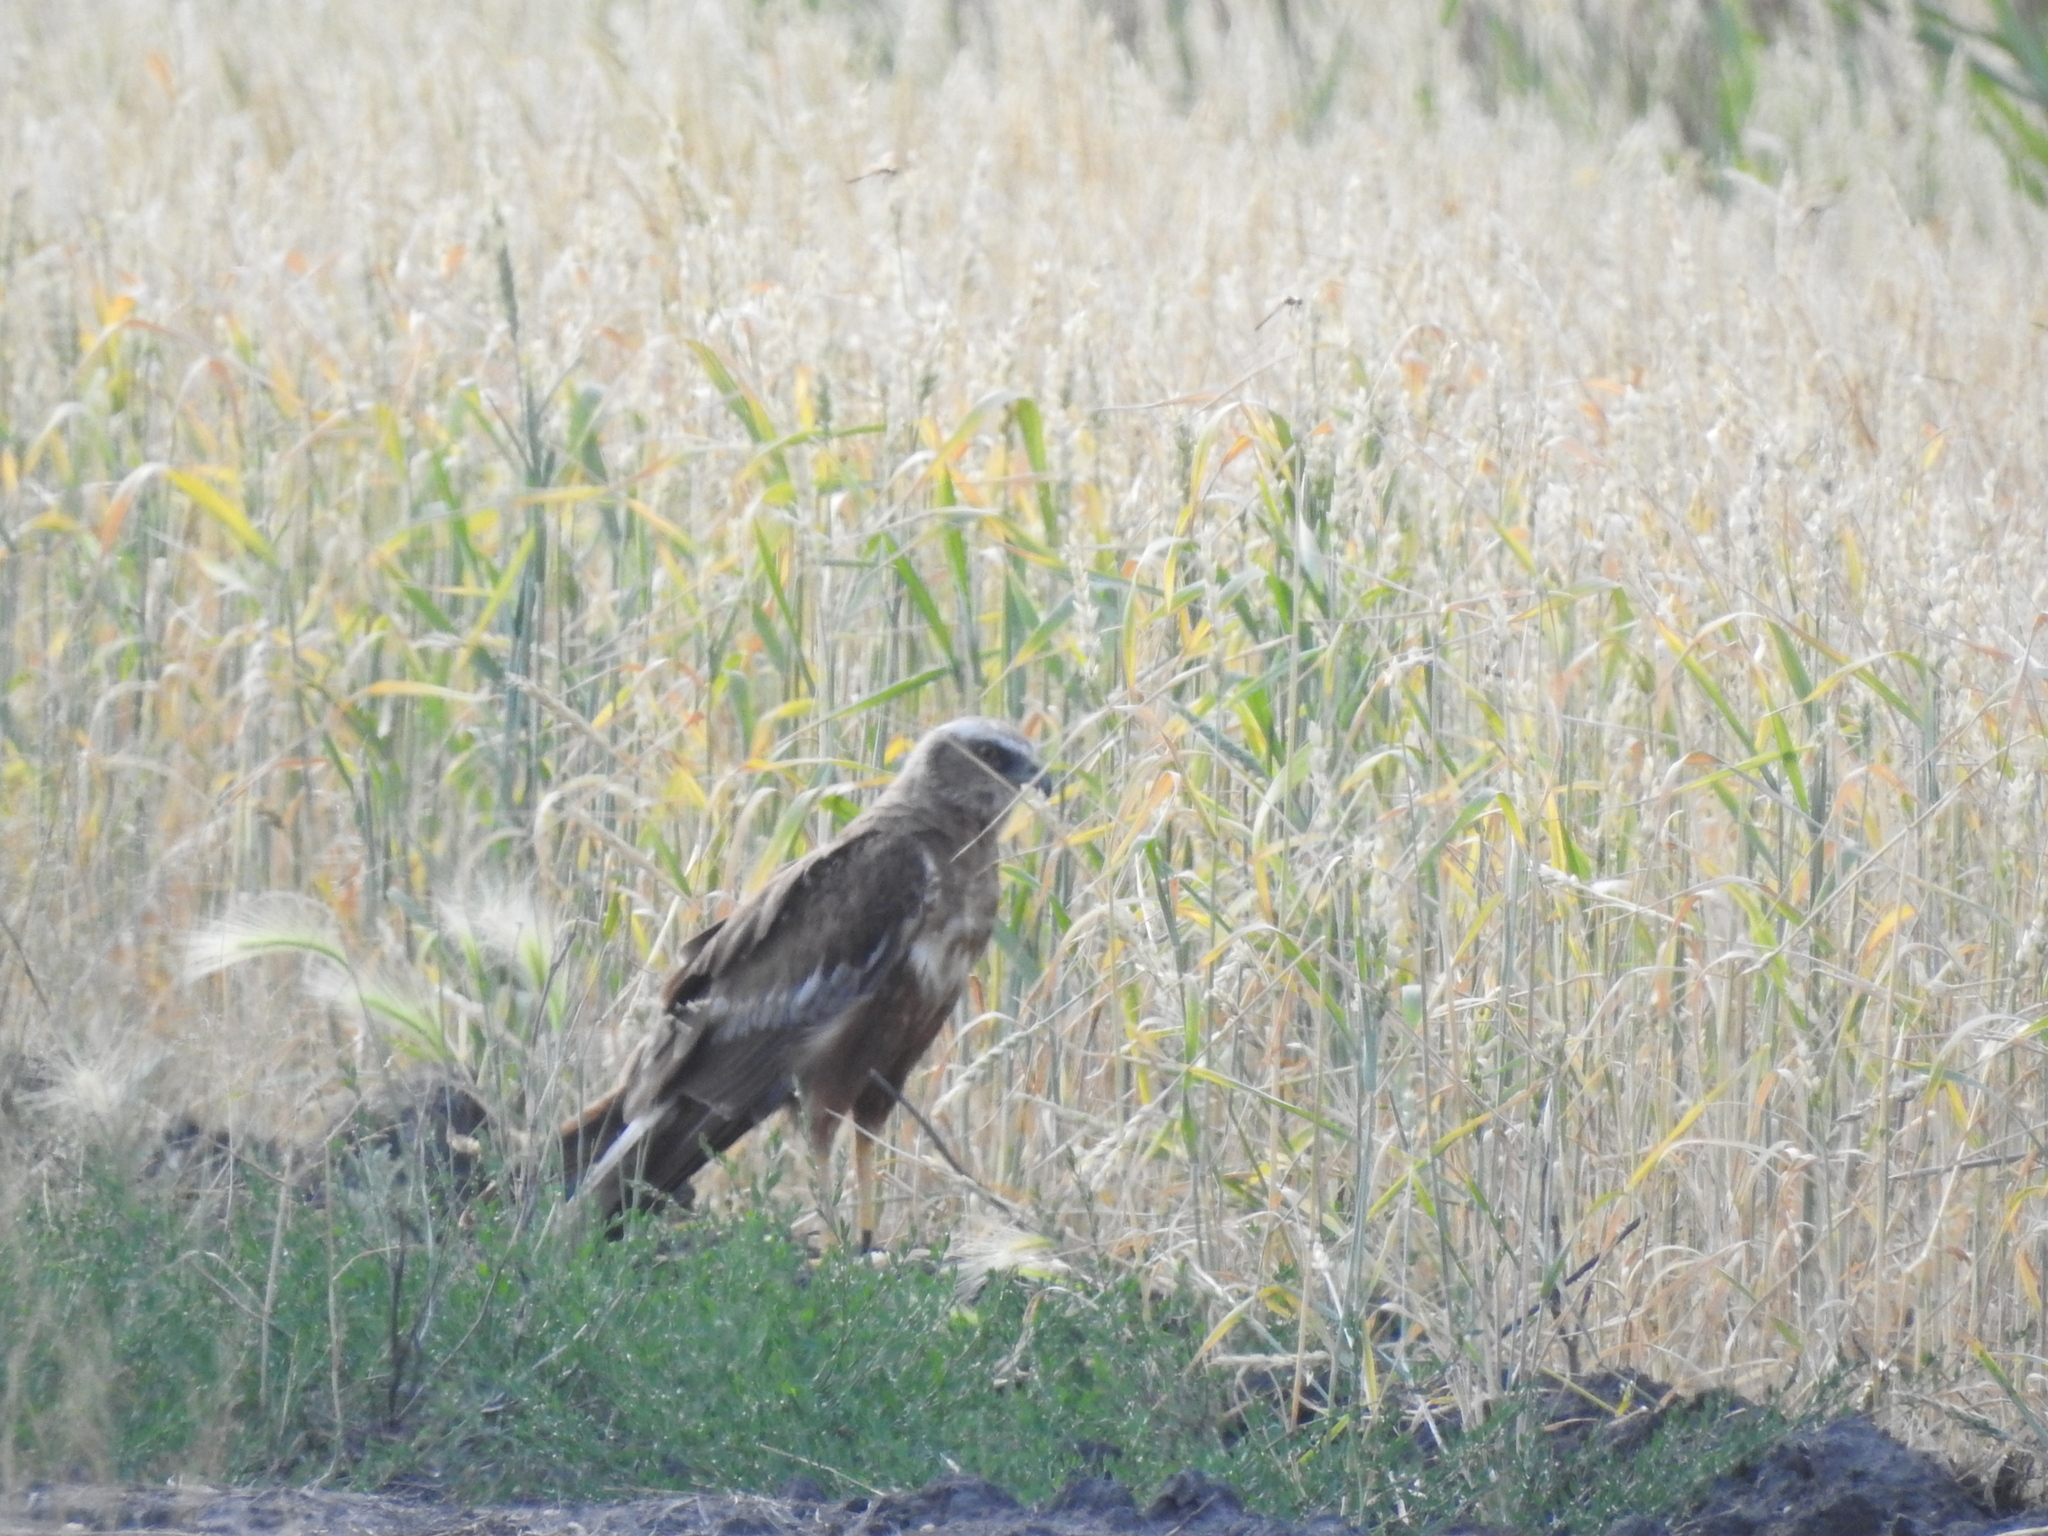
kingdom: Animalia
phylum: Chordata
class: Aves
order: Accipitriformes
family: Accipitridae
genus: Circus
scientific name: Circus aeruginosus
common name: Western marsh harrier
